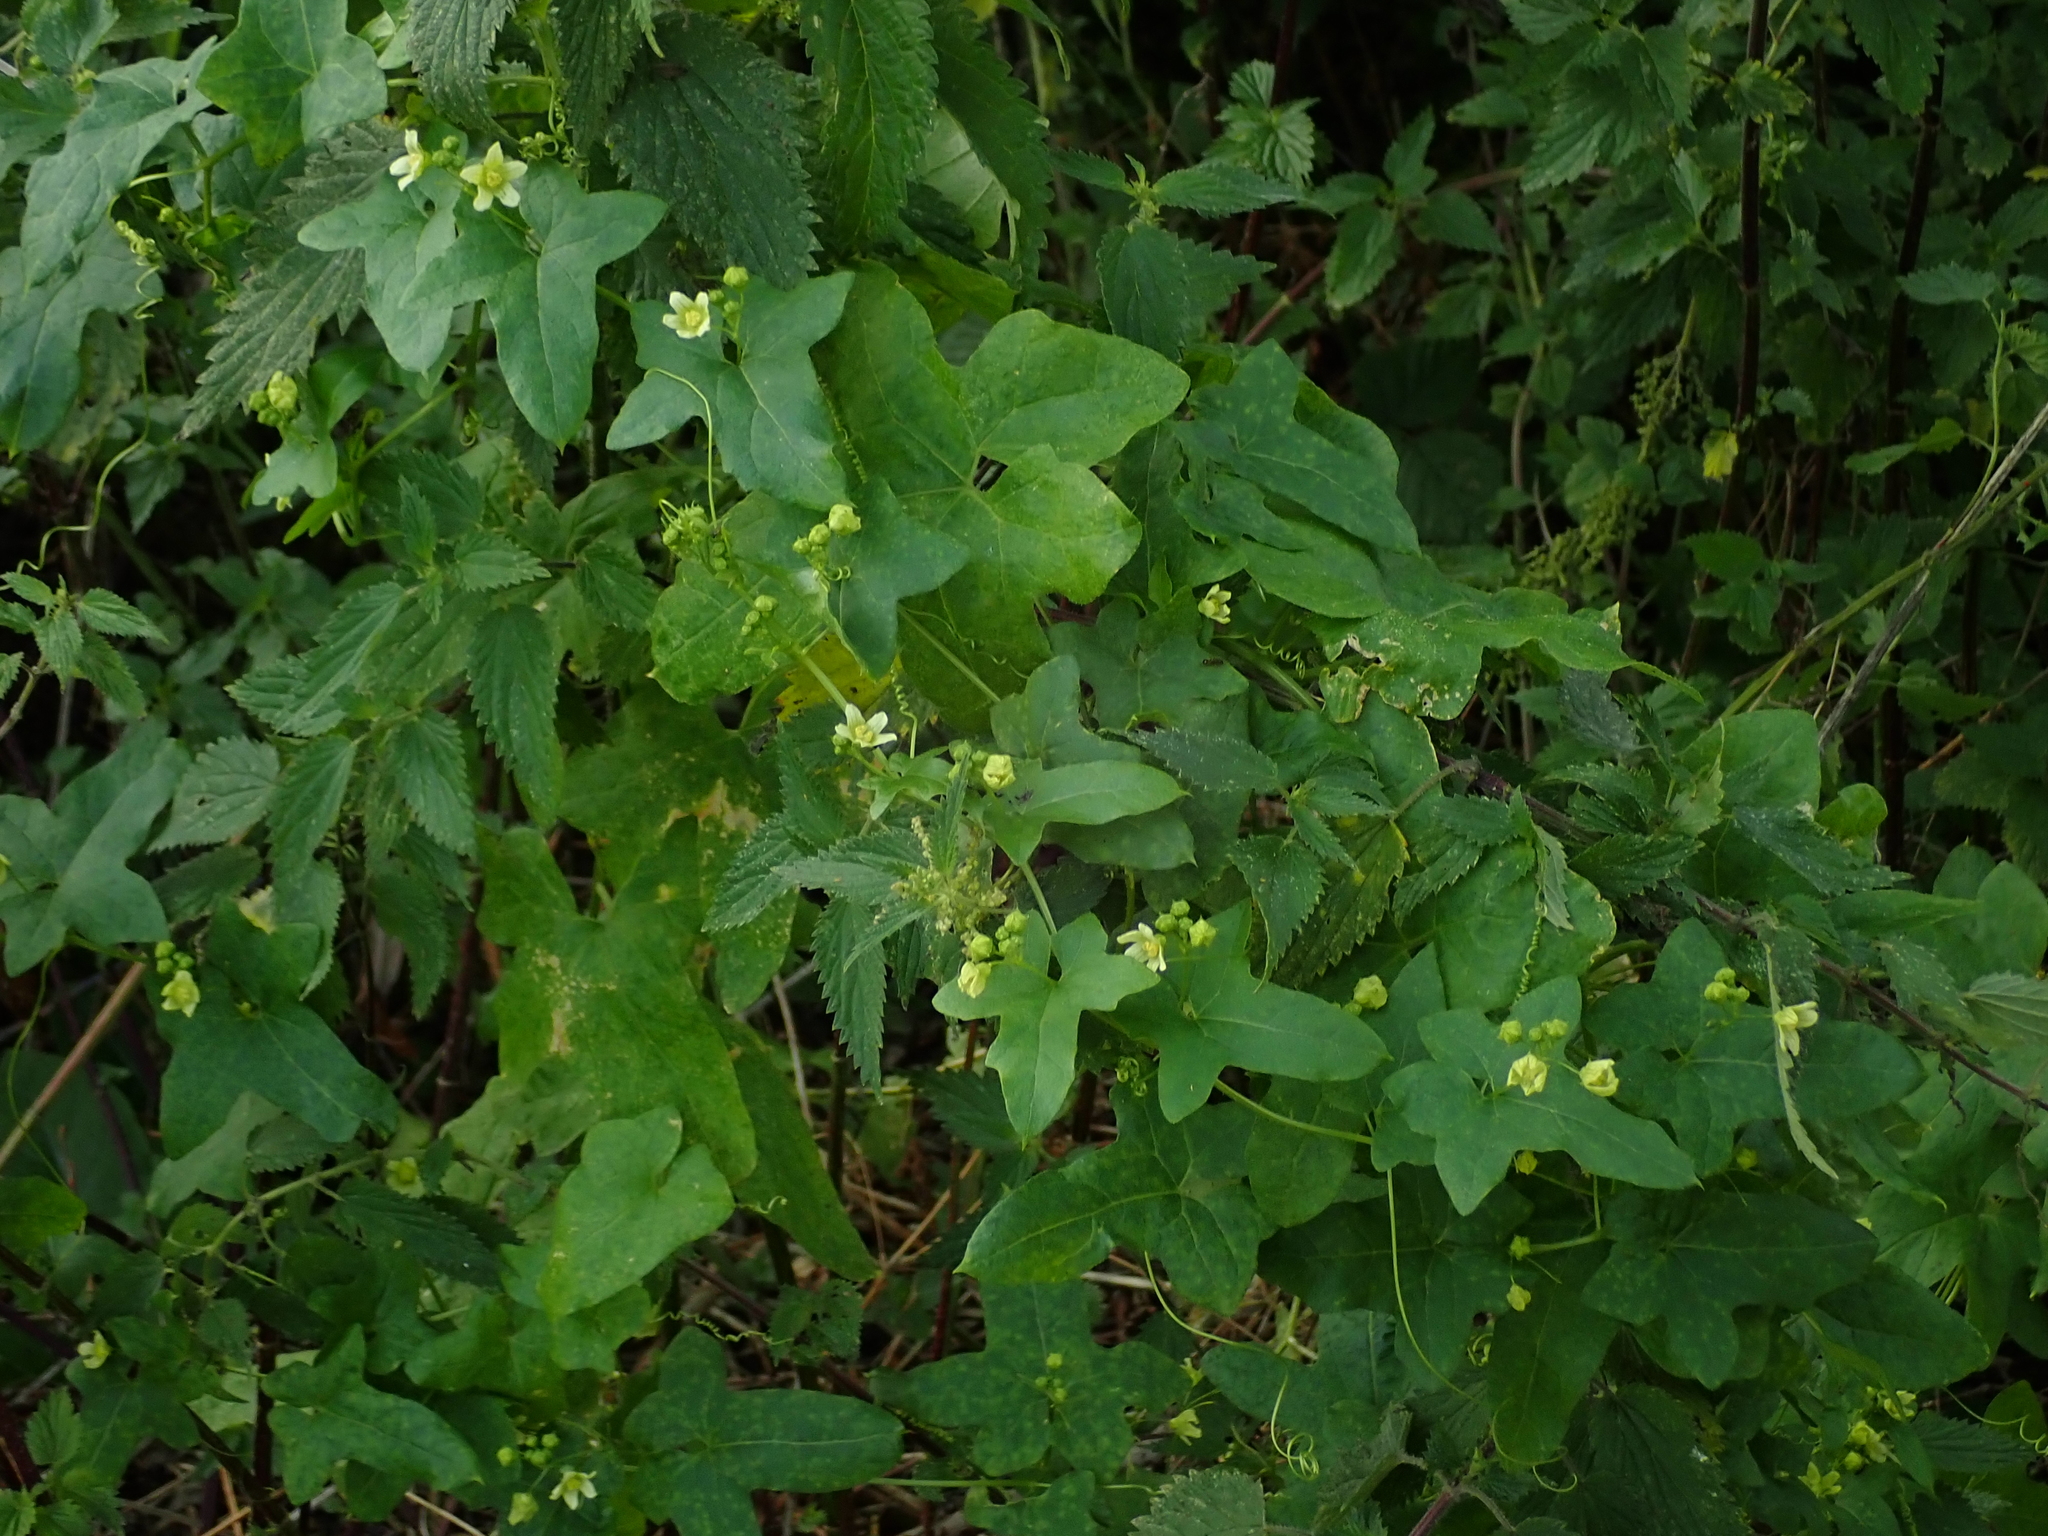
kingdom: Plantae
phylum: Tracheophyta
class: Magnoliopsida
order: Cucurbitales
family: Cucurbitaceae
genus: Bryonia
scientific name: Bryonia cretica
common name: Cretan bryony
